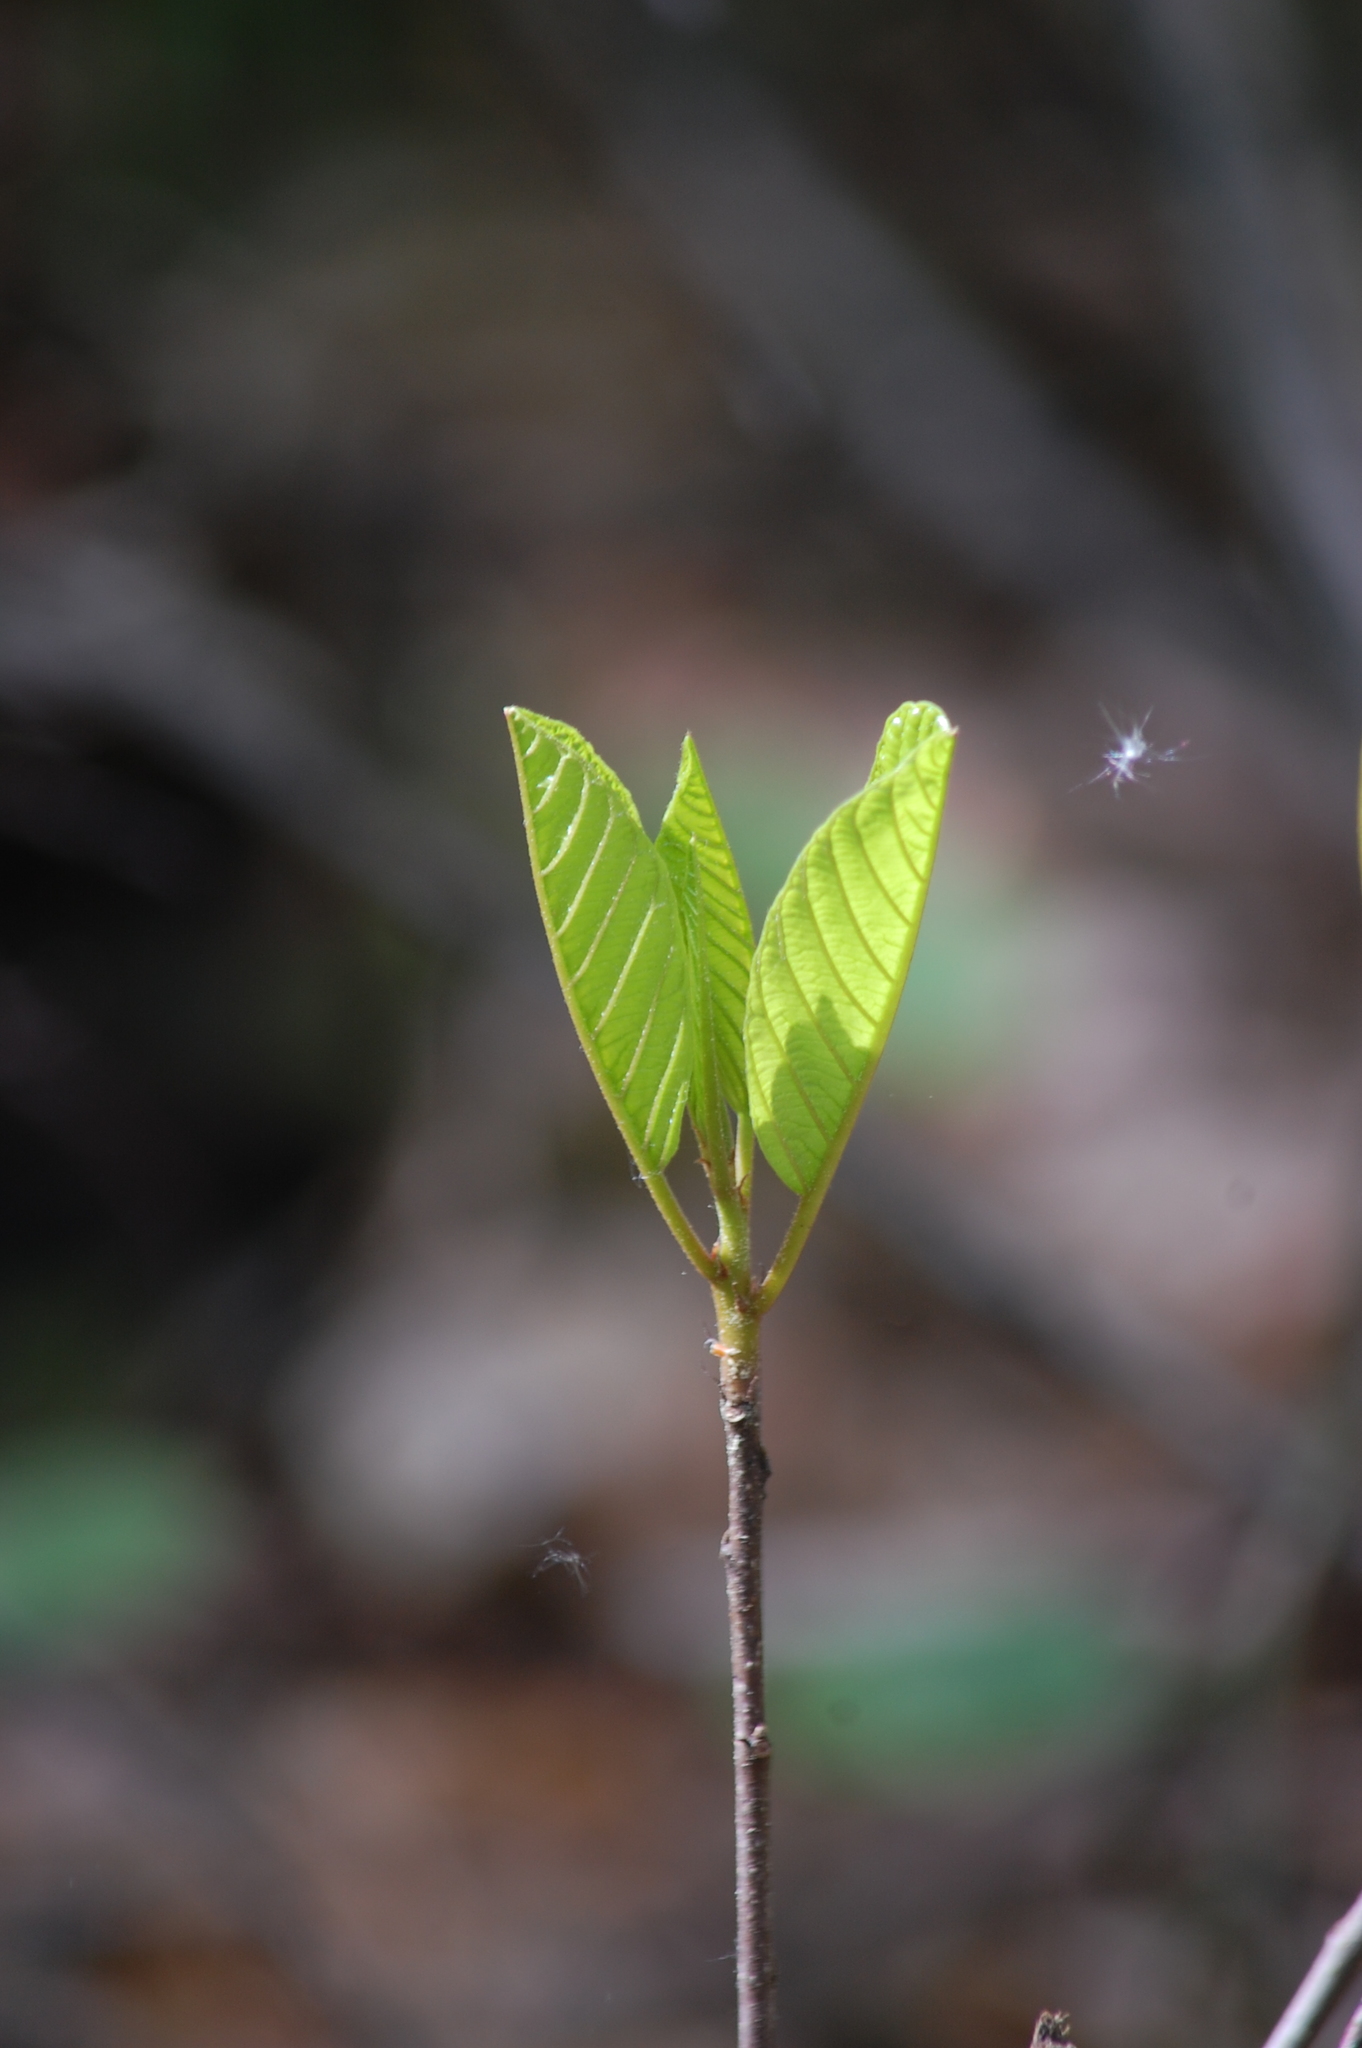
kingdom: Plantae
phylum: Tracheophyta
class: Magnoliopsida
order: Rosales
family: Rhamnaceae
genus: Frangula
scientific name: Frangula alnus
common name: Alder buckthorn
